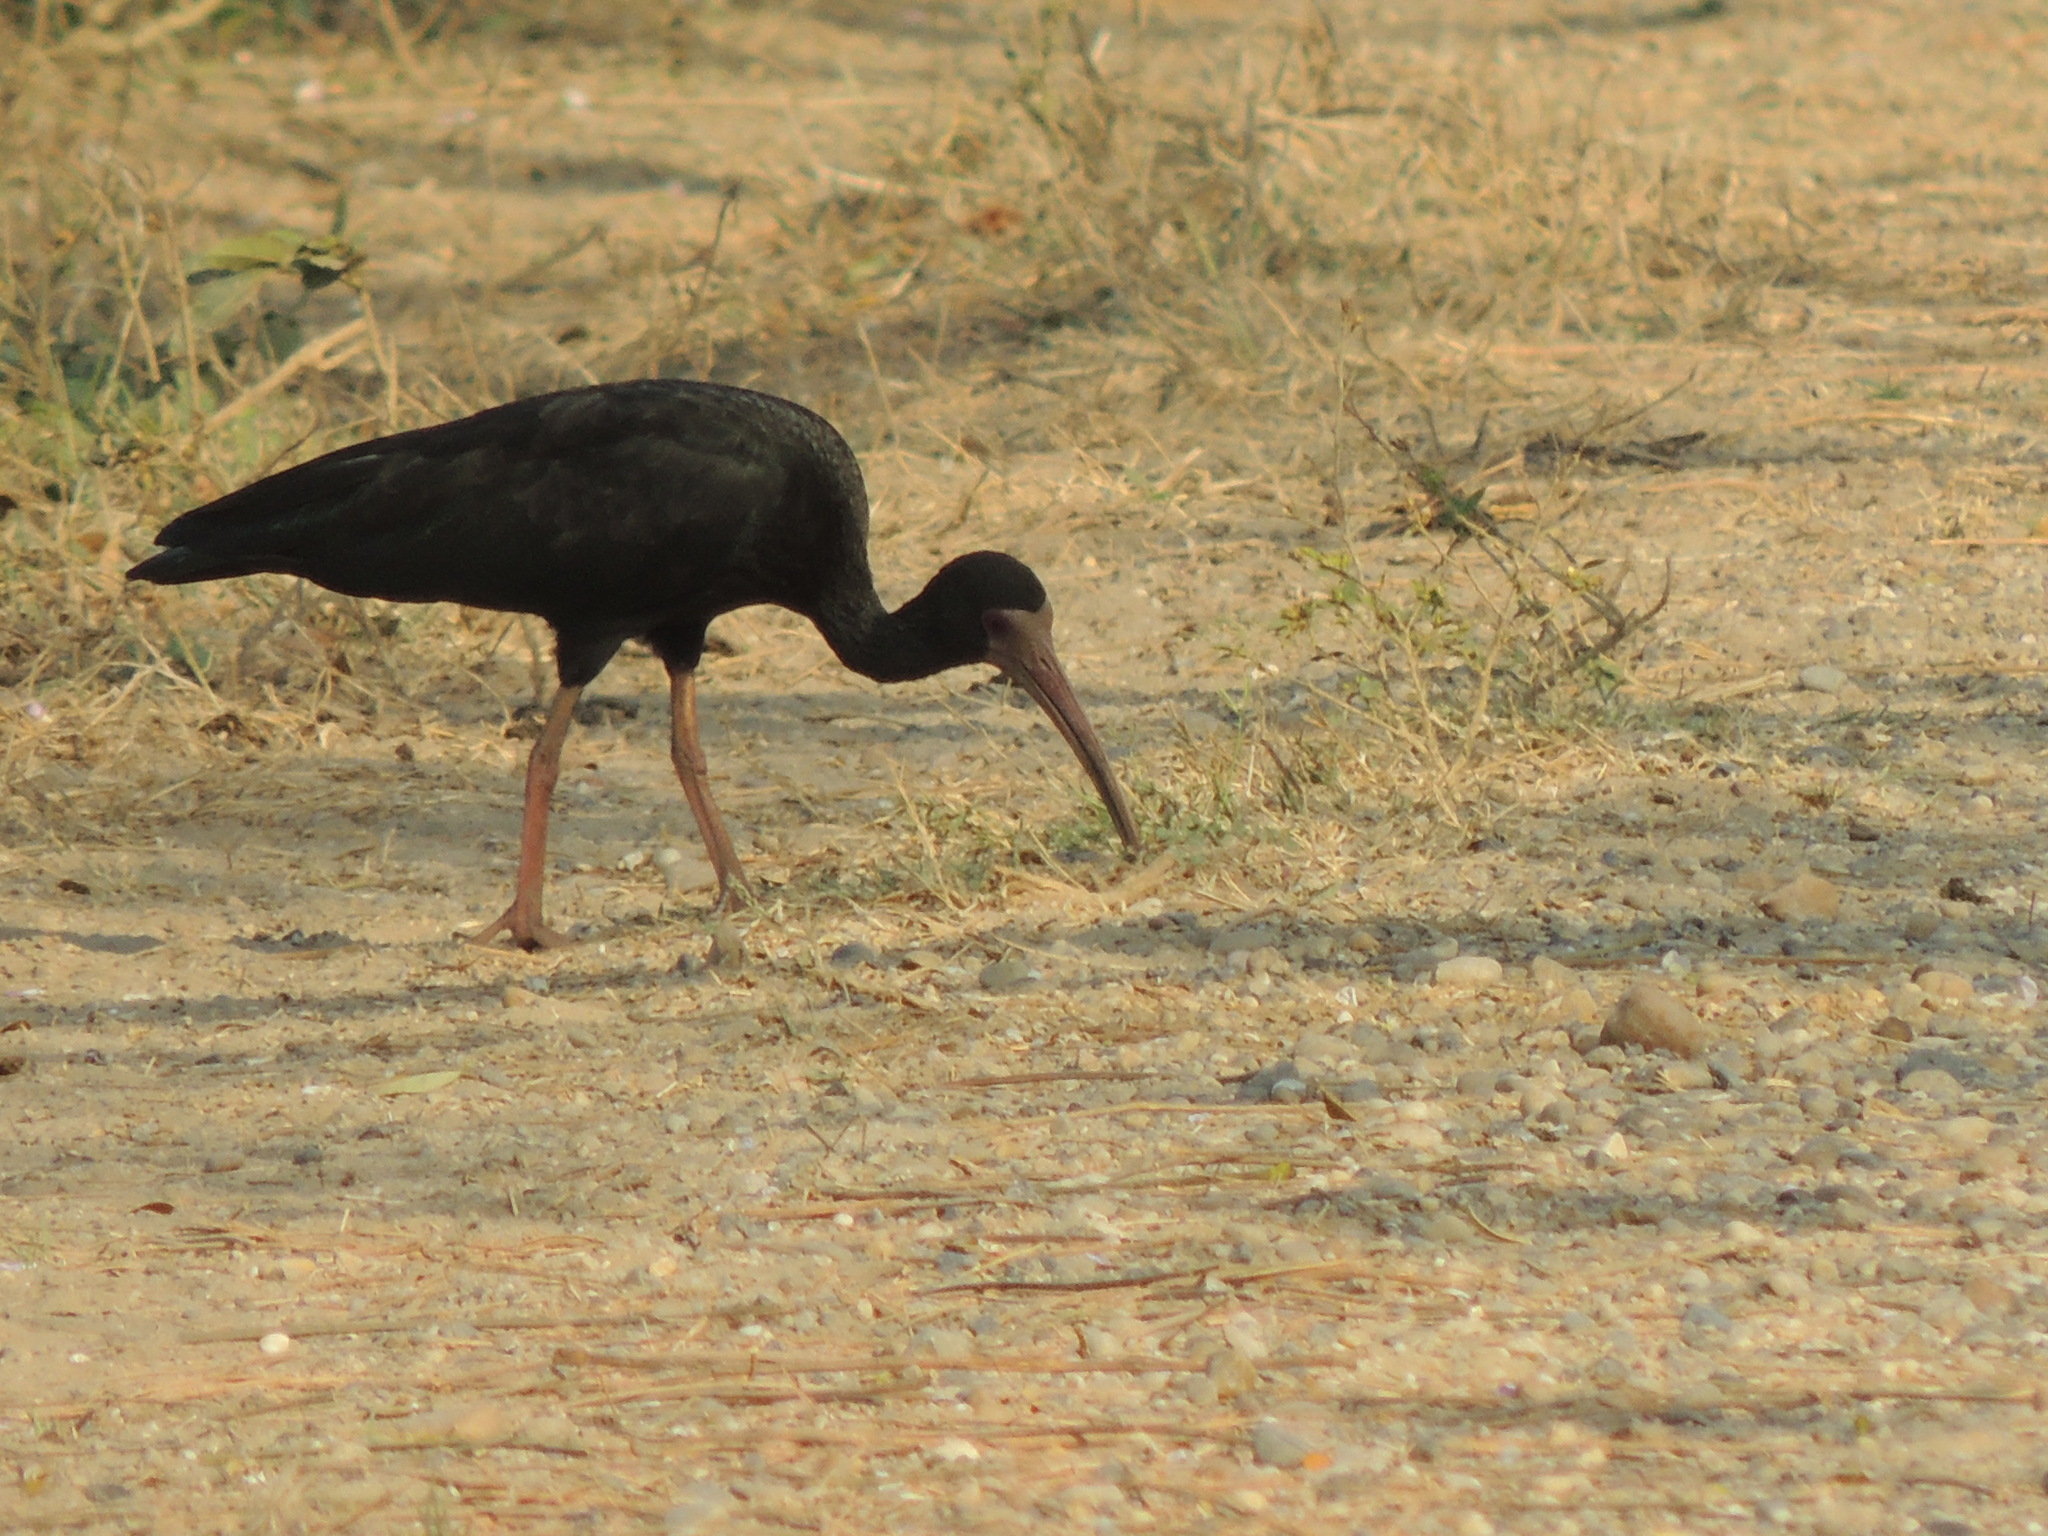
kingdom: Animalia
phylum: Chordata
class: Aves
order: Pelecaniformes
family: Threskiornithidae
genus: Phimosus
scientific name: Phimosus infuscatus
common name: Bare-faced ibis
